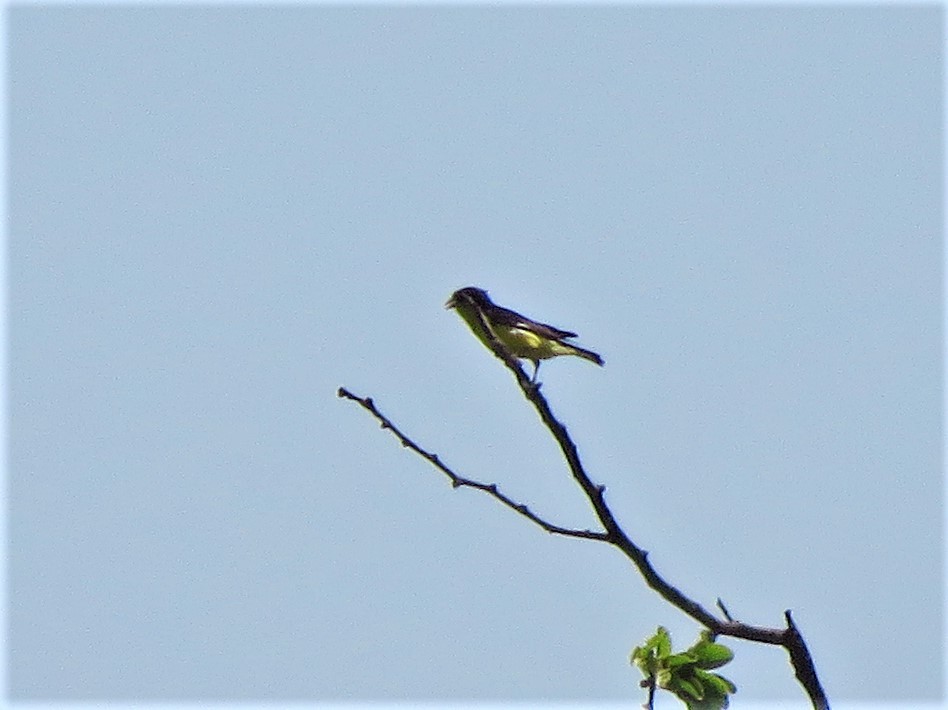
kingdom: Animalia
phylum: Chordata
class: Aves
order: Passeriformes
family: Fringillidae
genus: Spinus
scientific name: Spinus psaltria
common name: Lesser goldfinch
